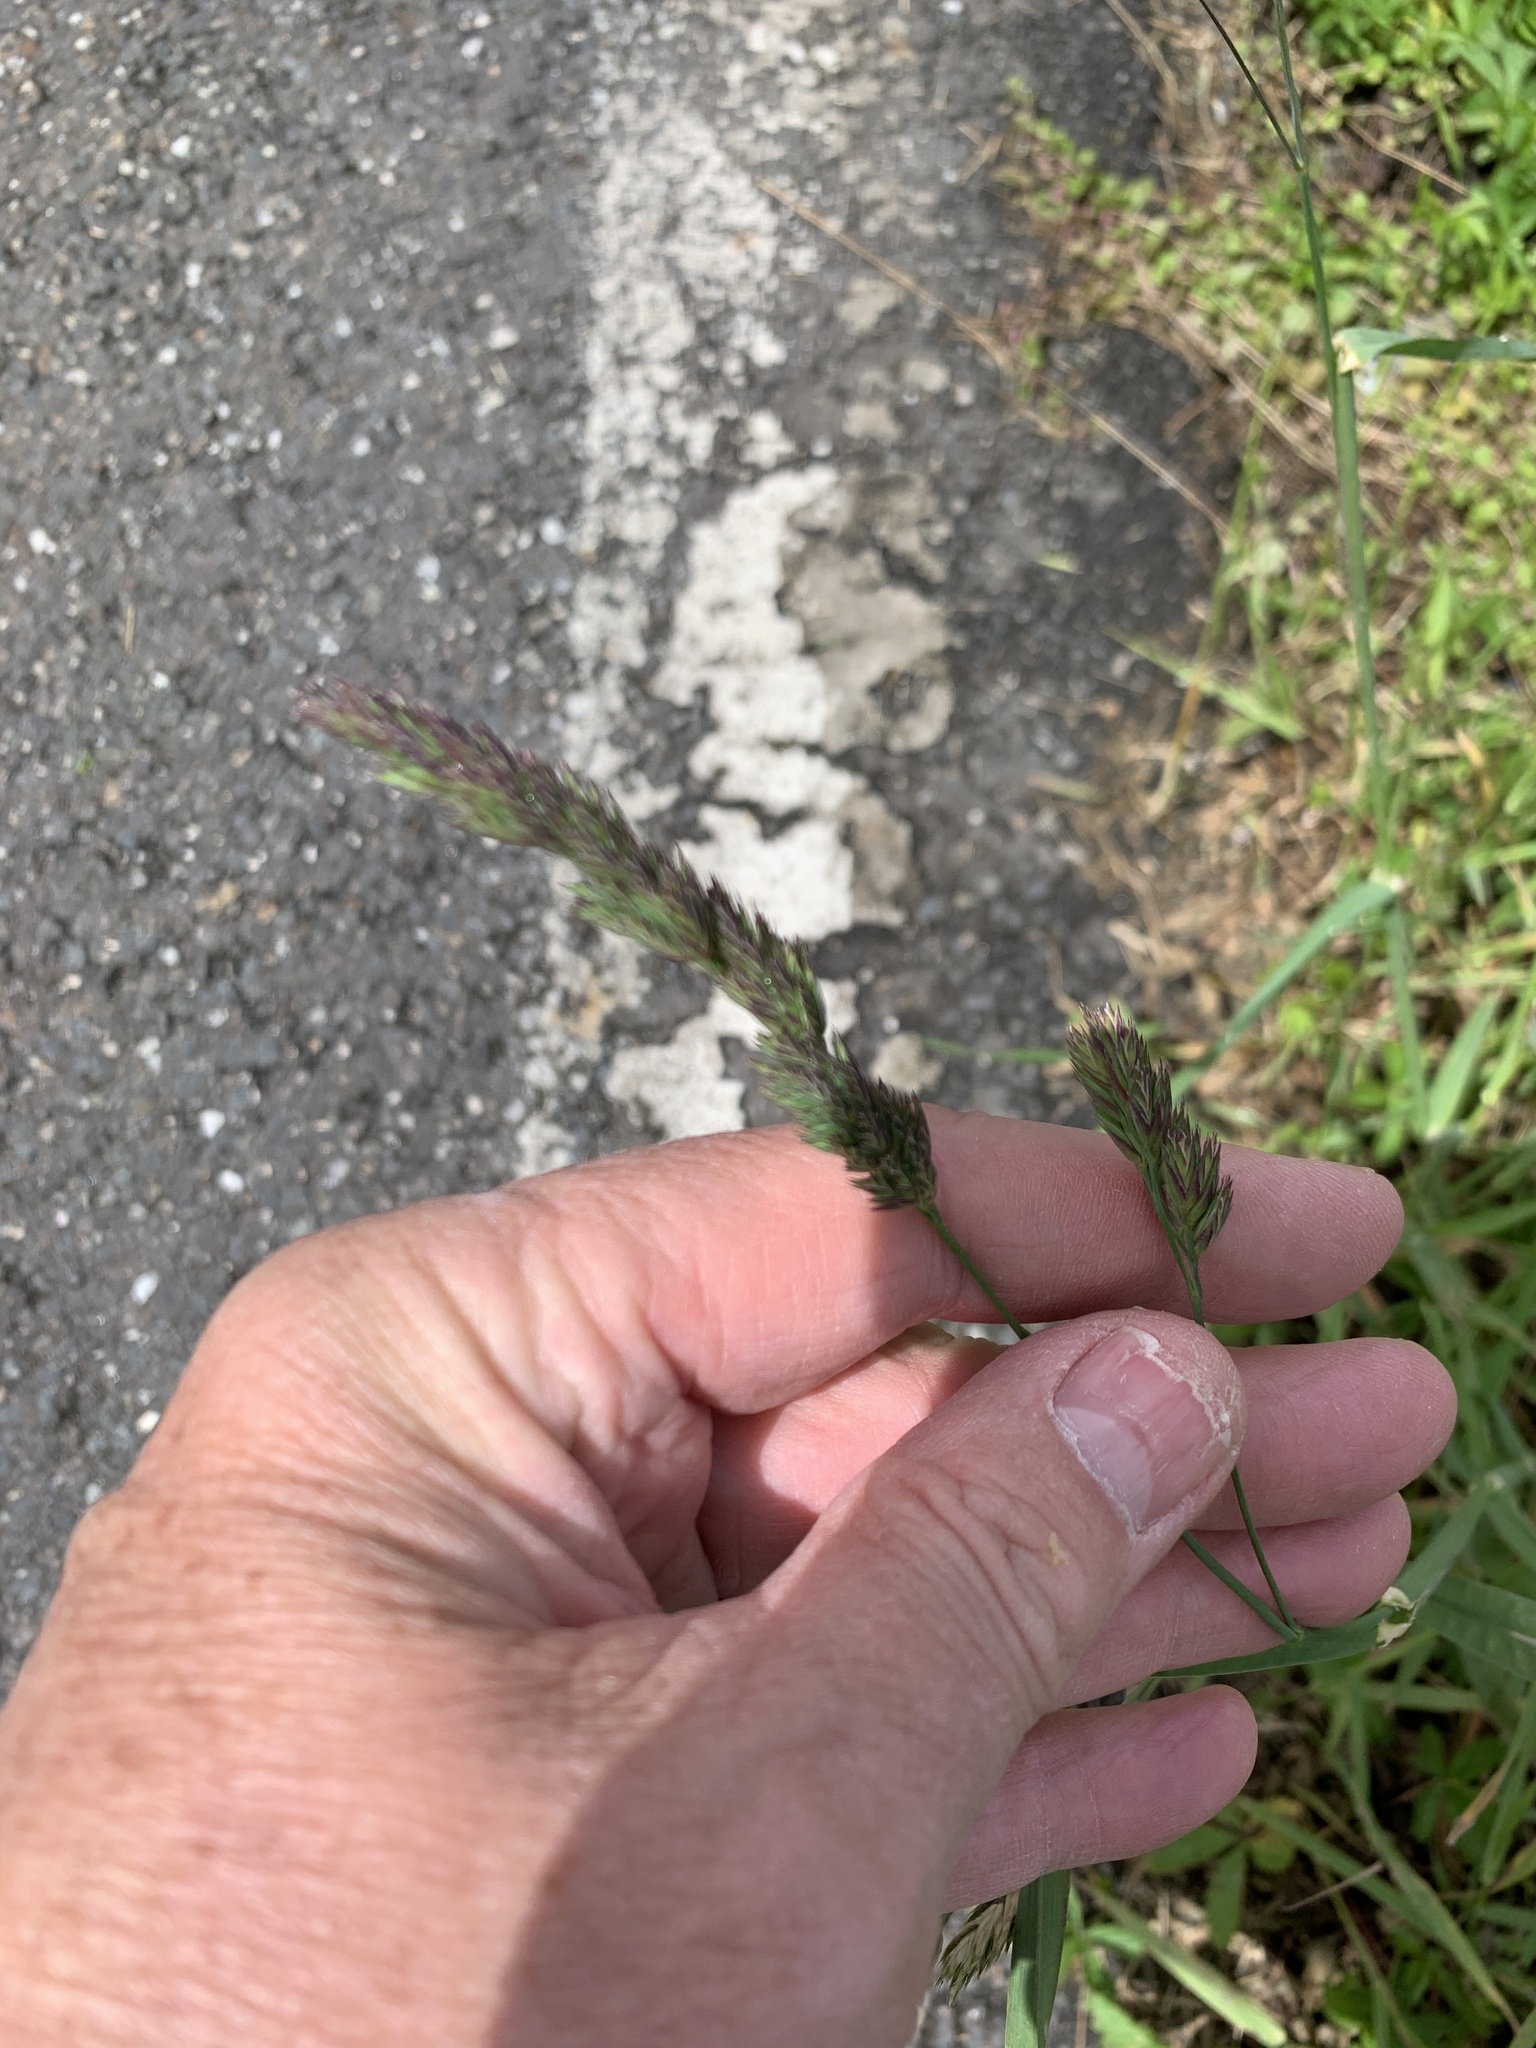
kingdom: Plantae
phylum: Tracheophyta
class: Liliopsida
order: Poales
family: Poaceae
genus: Dactylis
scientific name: Dactylis glomerata
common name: Orchardgrass
